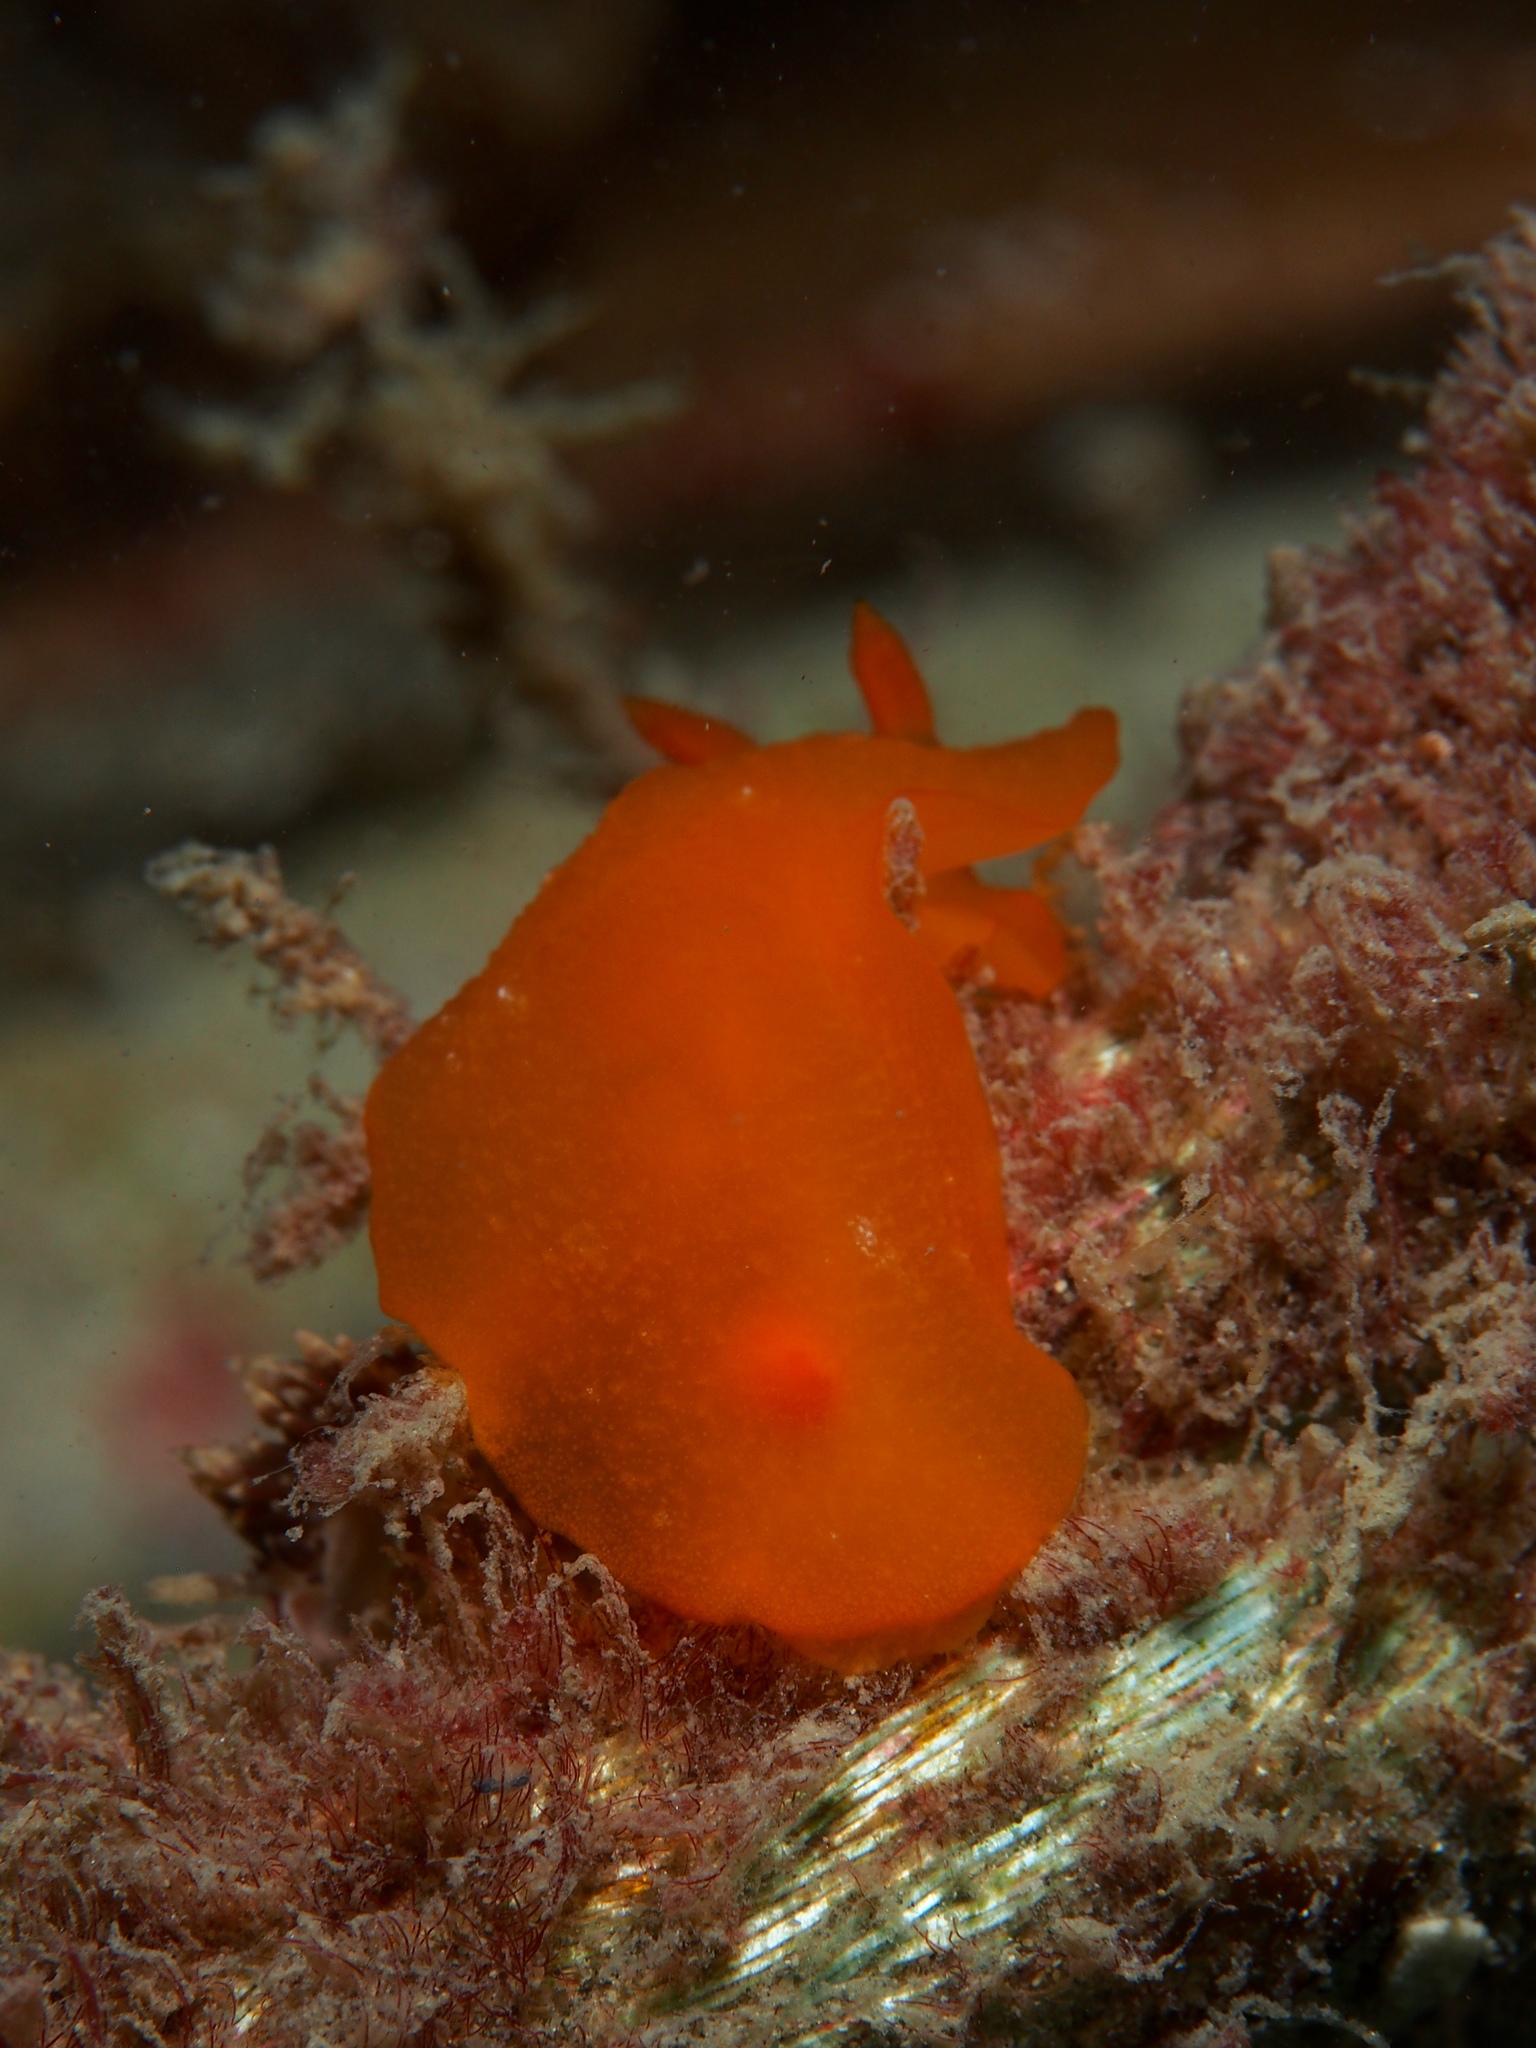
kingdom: Animalia
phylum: Mollusca
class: Gastropoda
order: Nudibranchia
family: Dendrodorididae
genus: Doriopsilla
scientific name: Doriopsilla carneola
